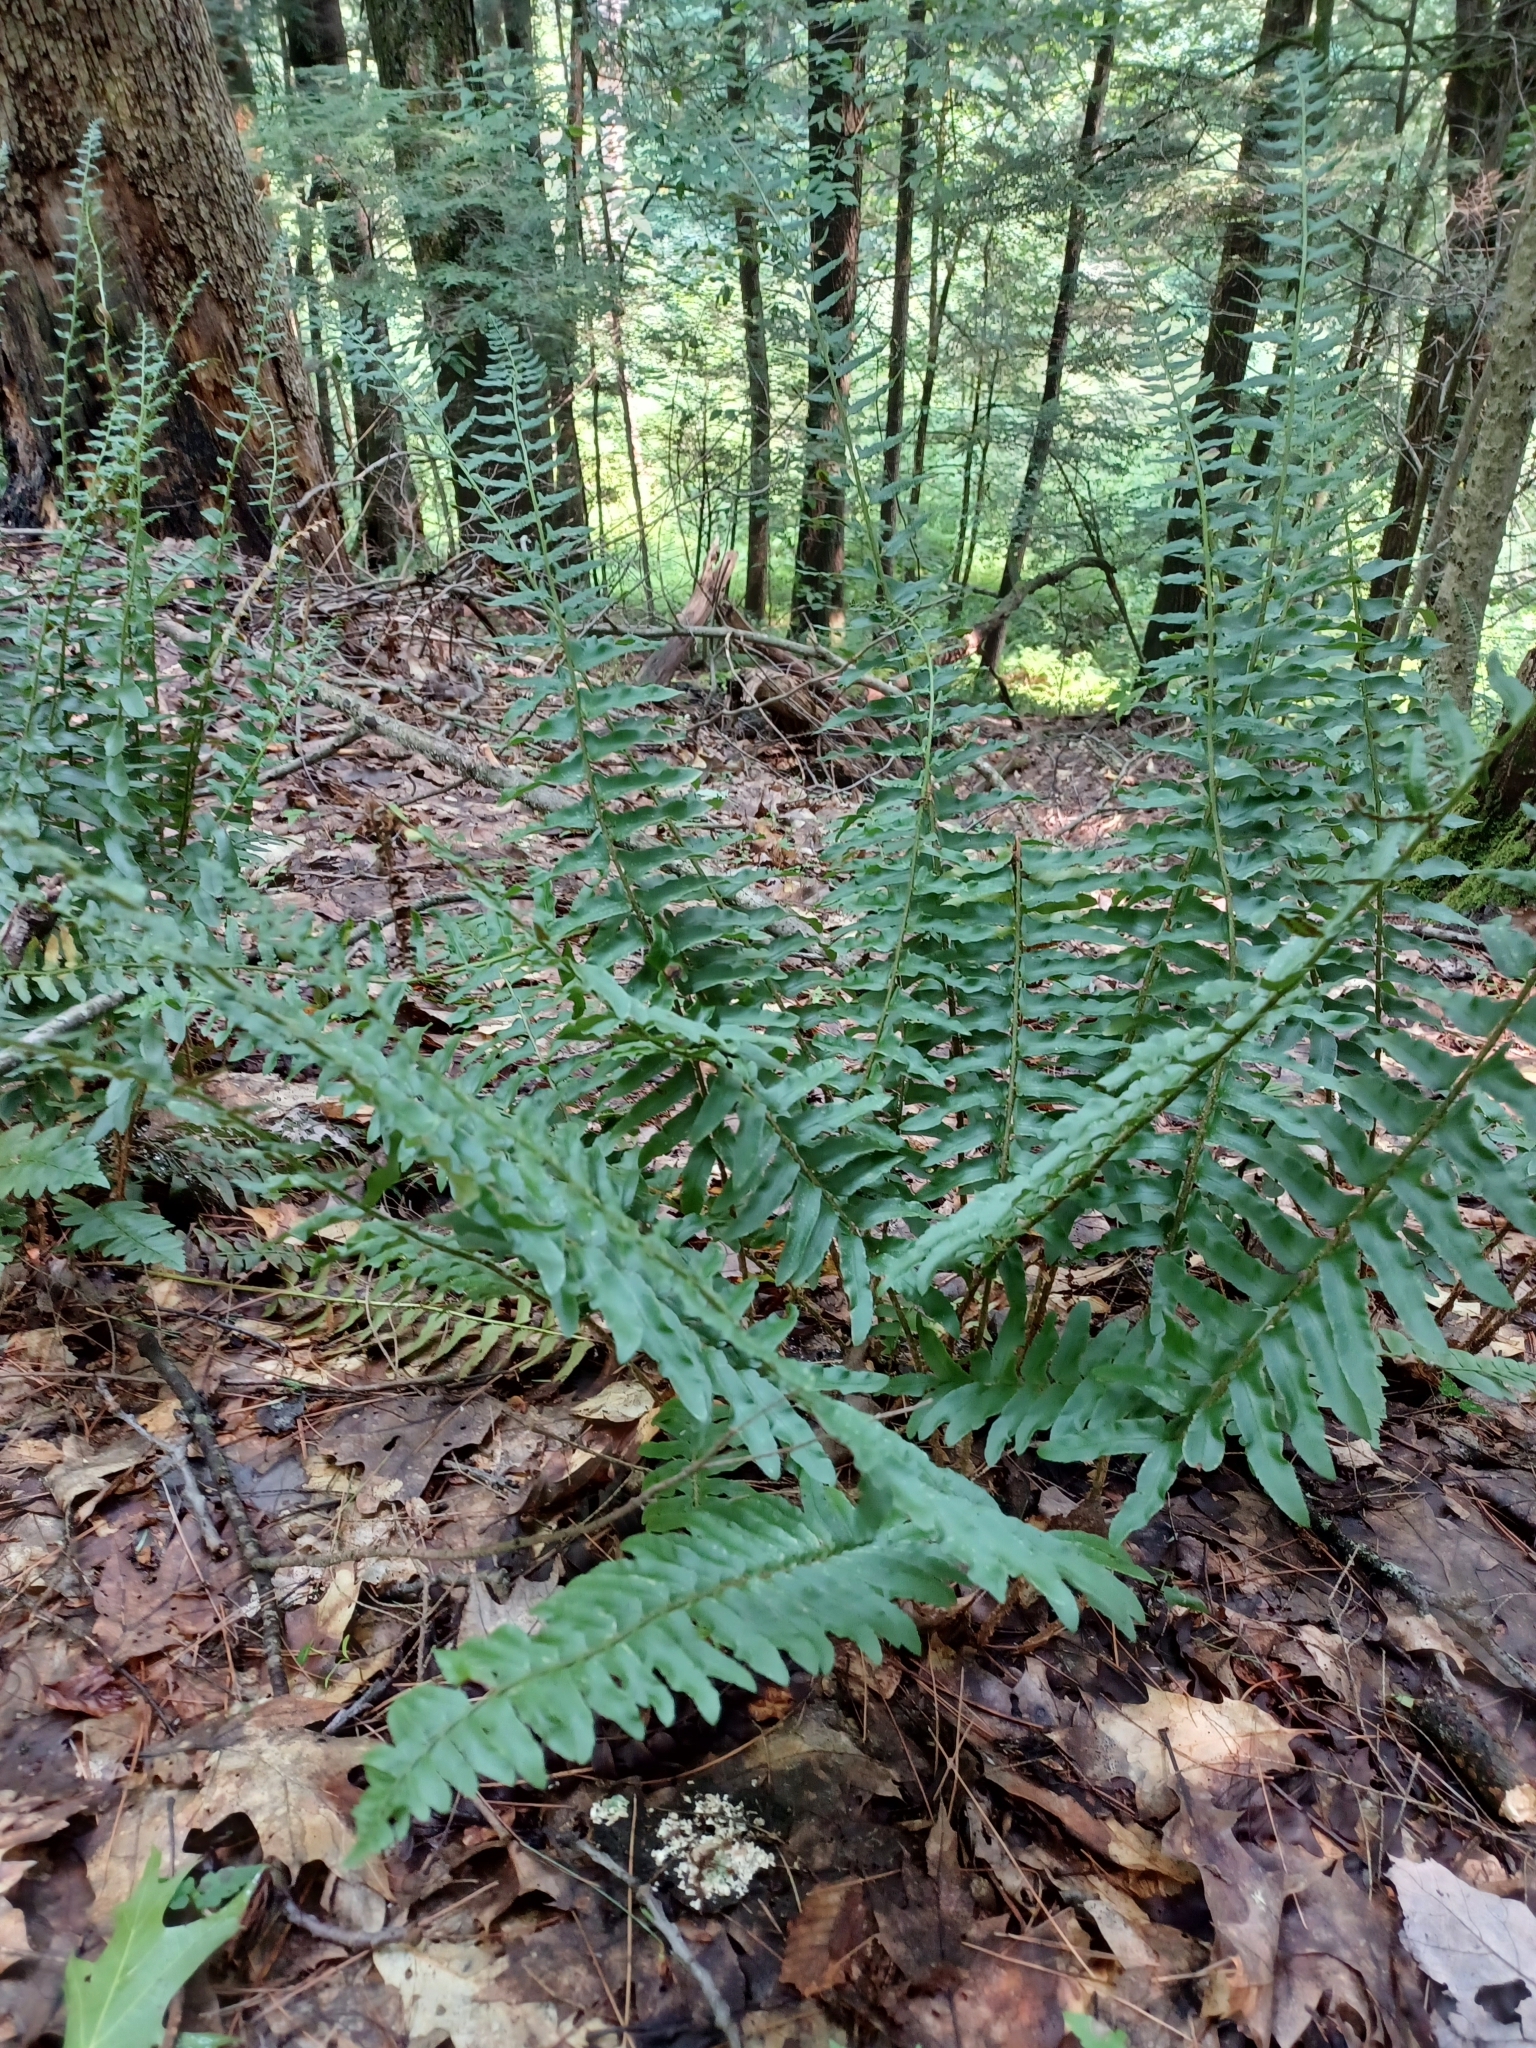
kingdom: Plantae
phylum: Tracheophyta
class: Polypodiopsida
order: Polypodiales
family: Dryopteridaceae
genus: Polystichum
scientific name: Polystichum acrostichoides
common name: Christmas fern
